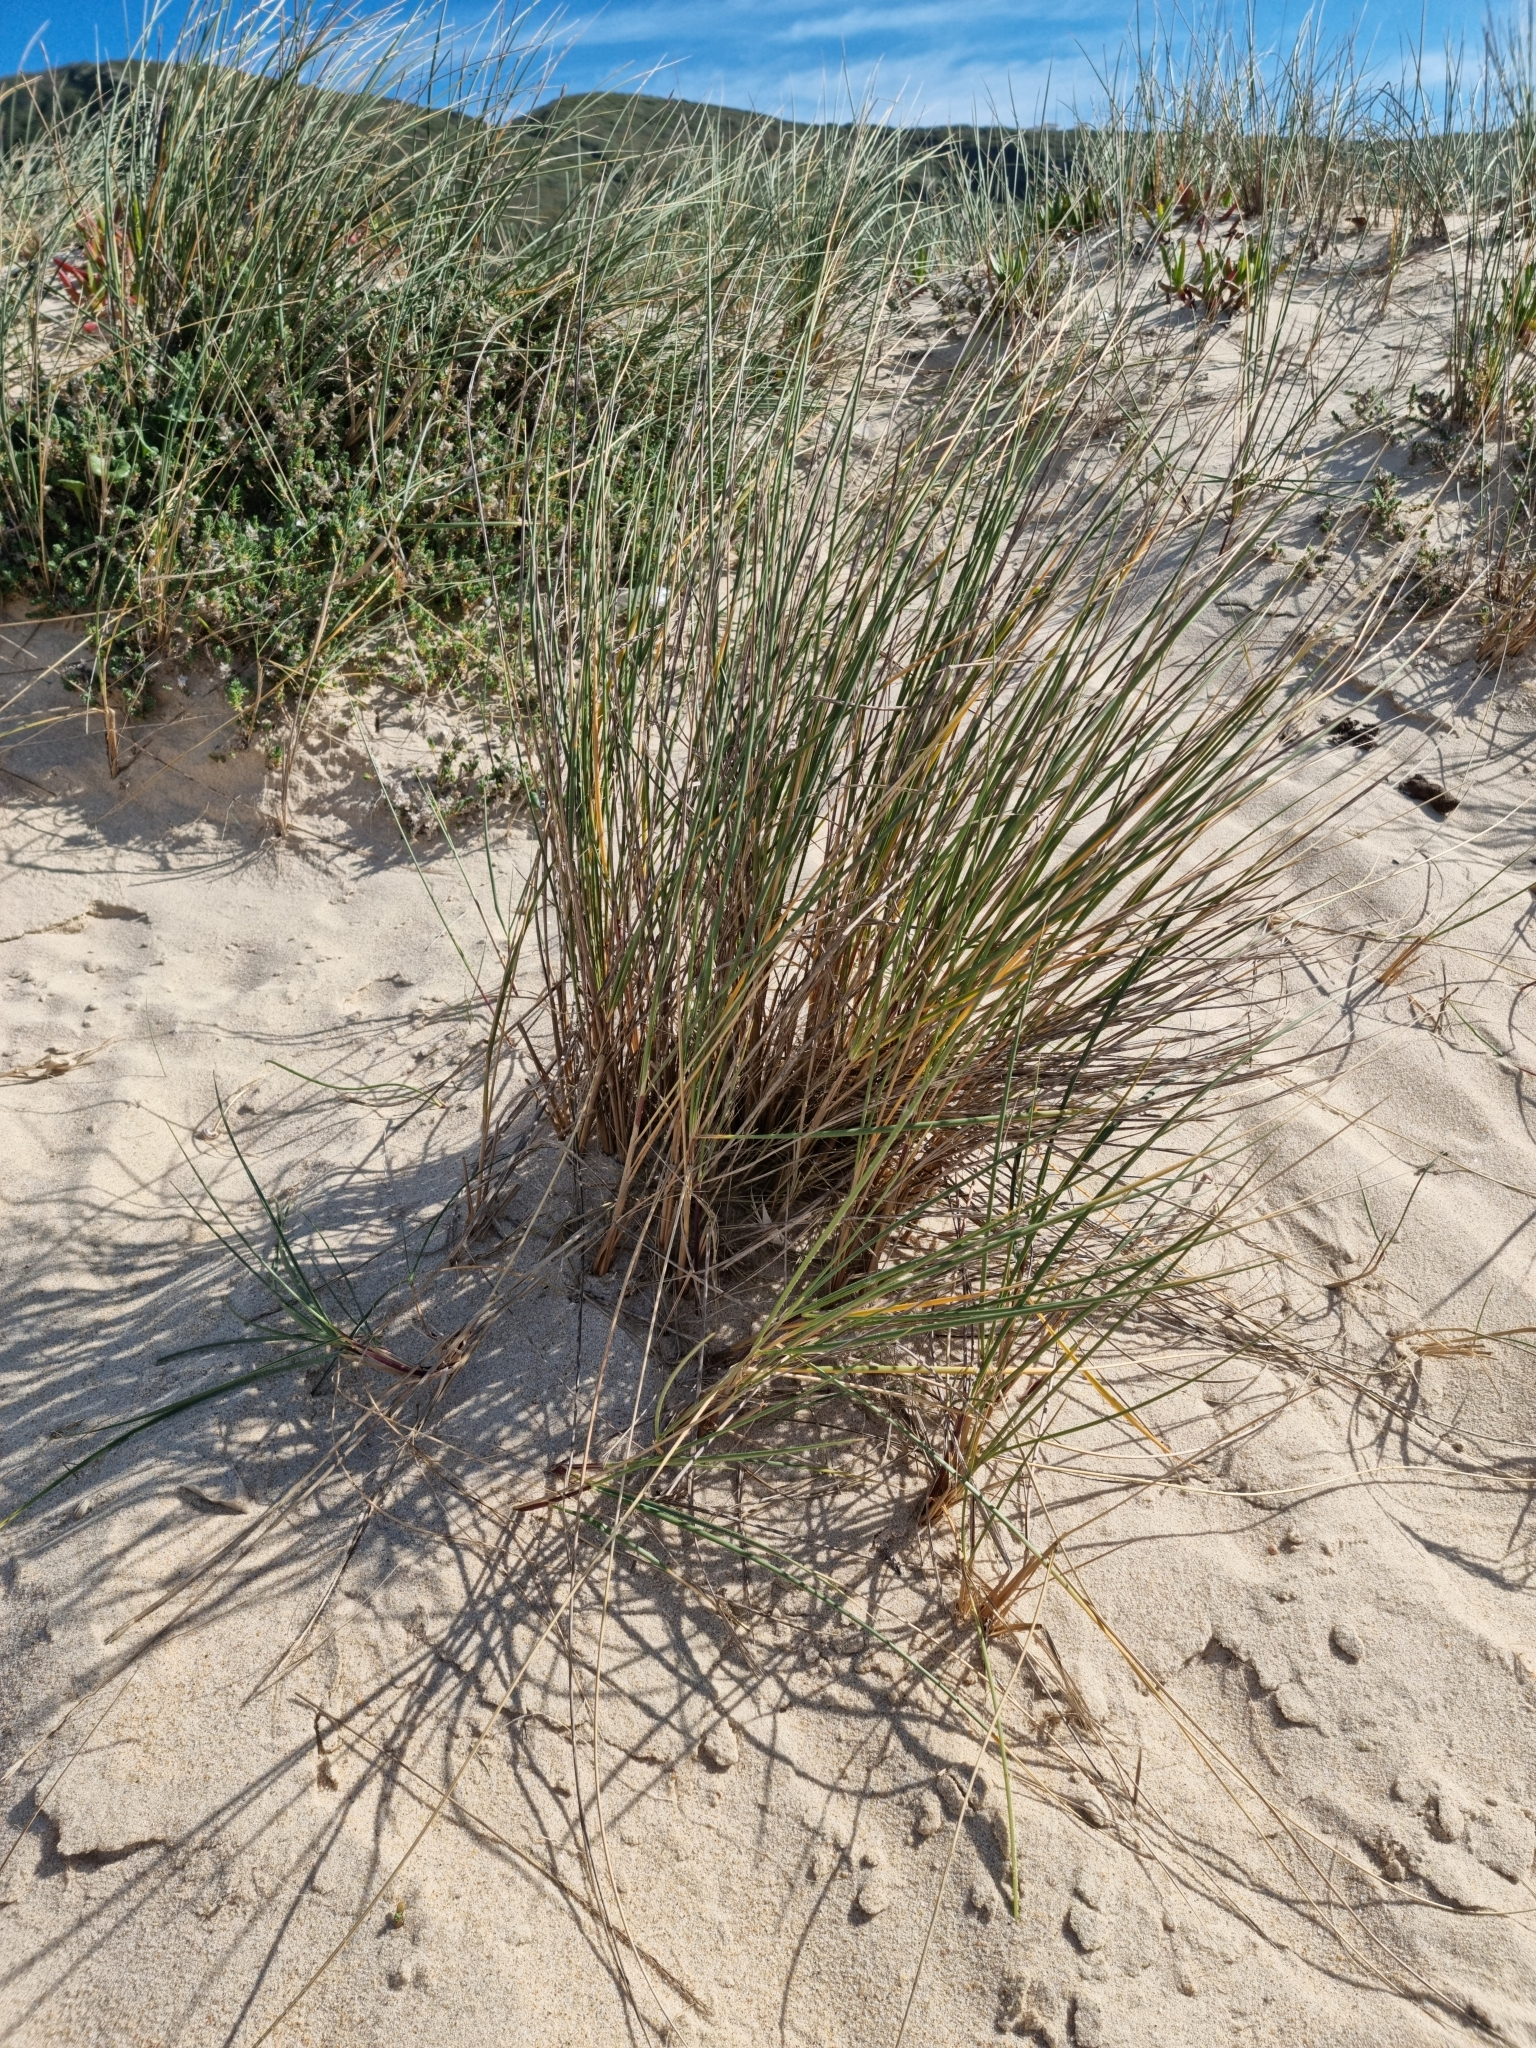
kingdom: Plantae
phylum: Tracheophyta
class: Liliopsida
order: Poales
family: Poaceae
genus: Calamagrostis
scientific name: Calamagrostis arenaria
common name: European beachgrass
